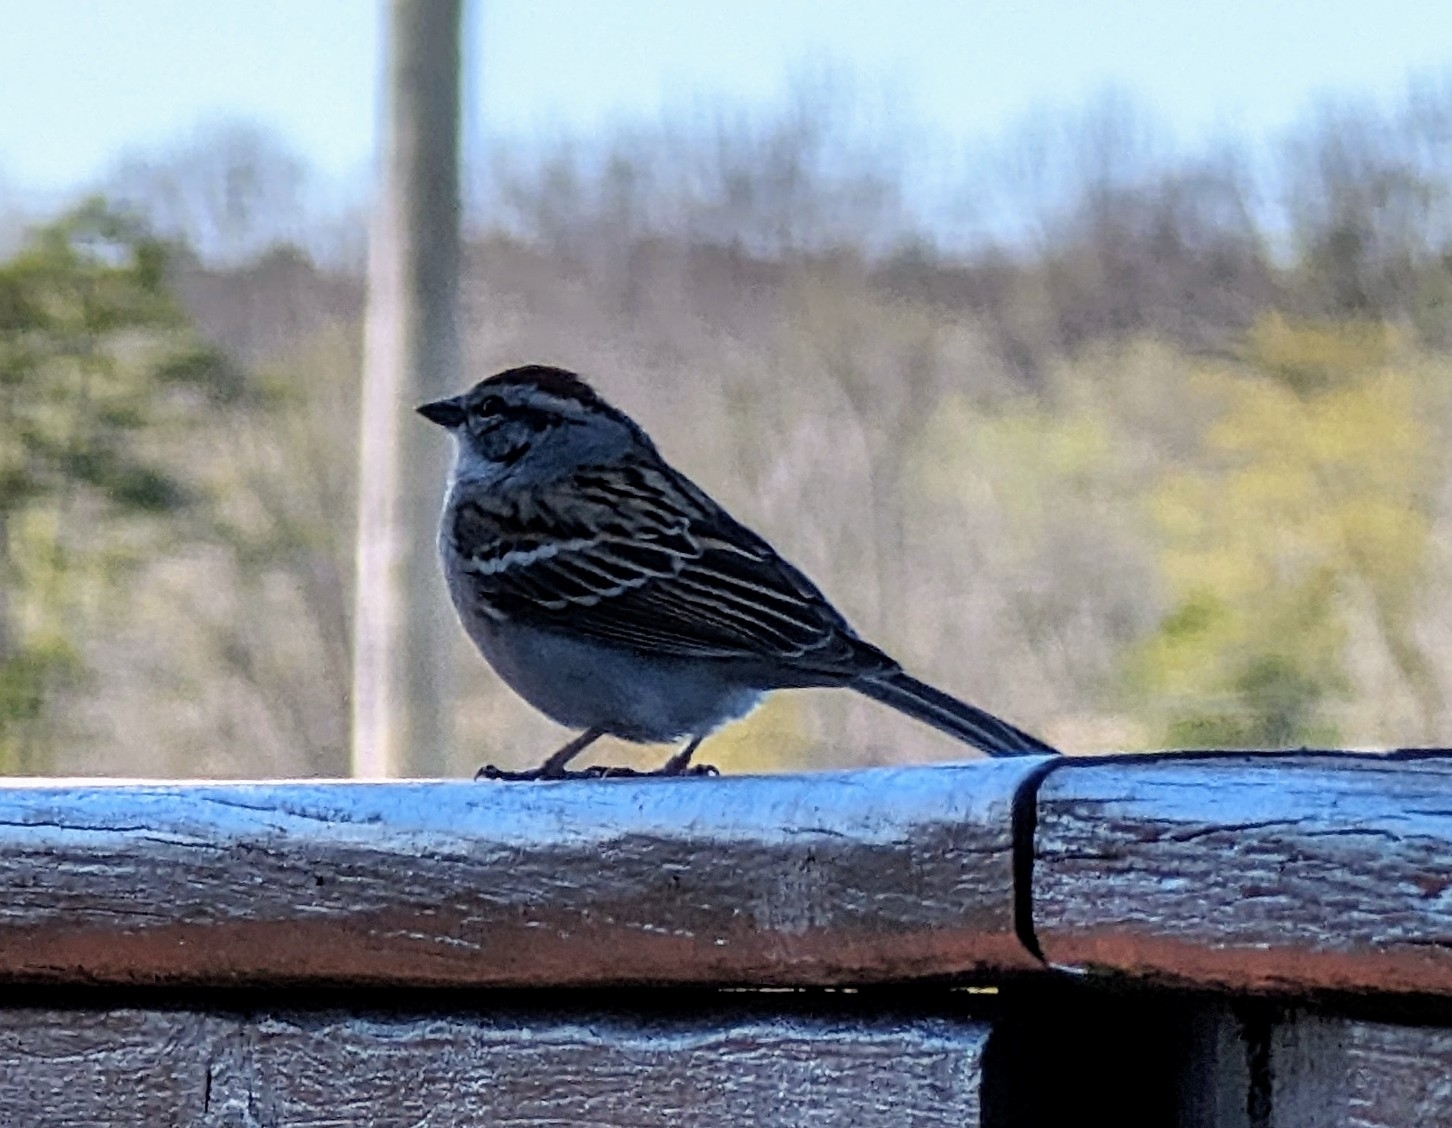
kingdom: Animalia
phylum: Chordata
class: Aves
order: Passeriformes
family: Passerellidae
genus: Spizella
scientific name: Spizella passerina
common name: Chipping sparrow
